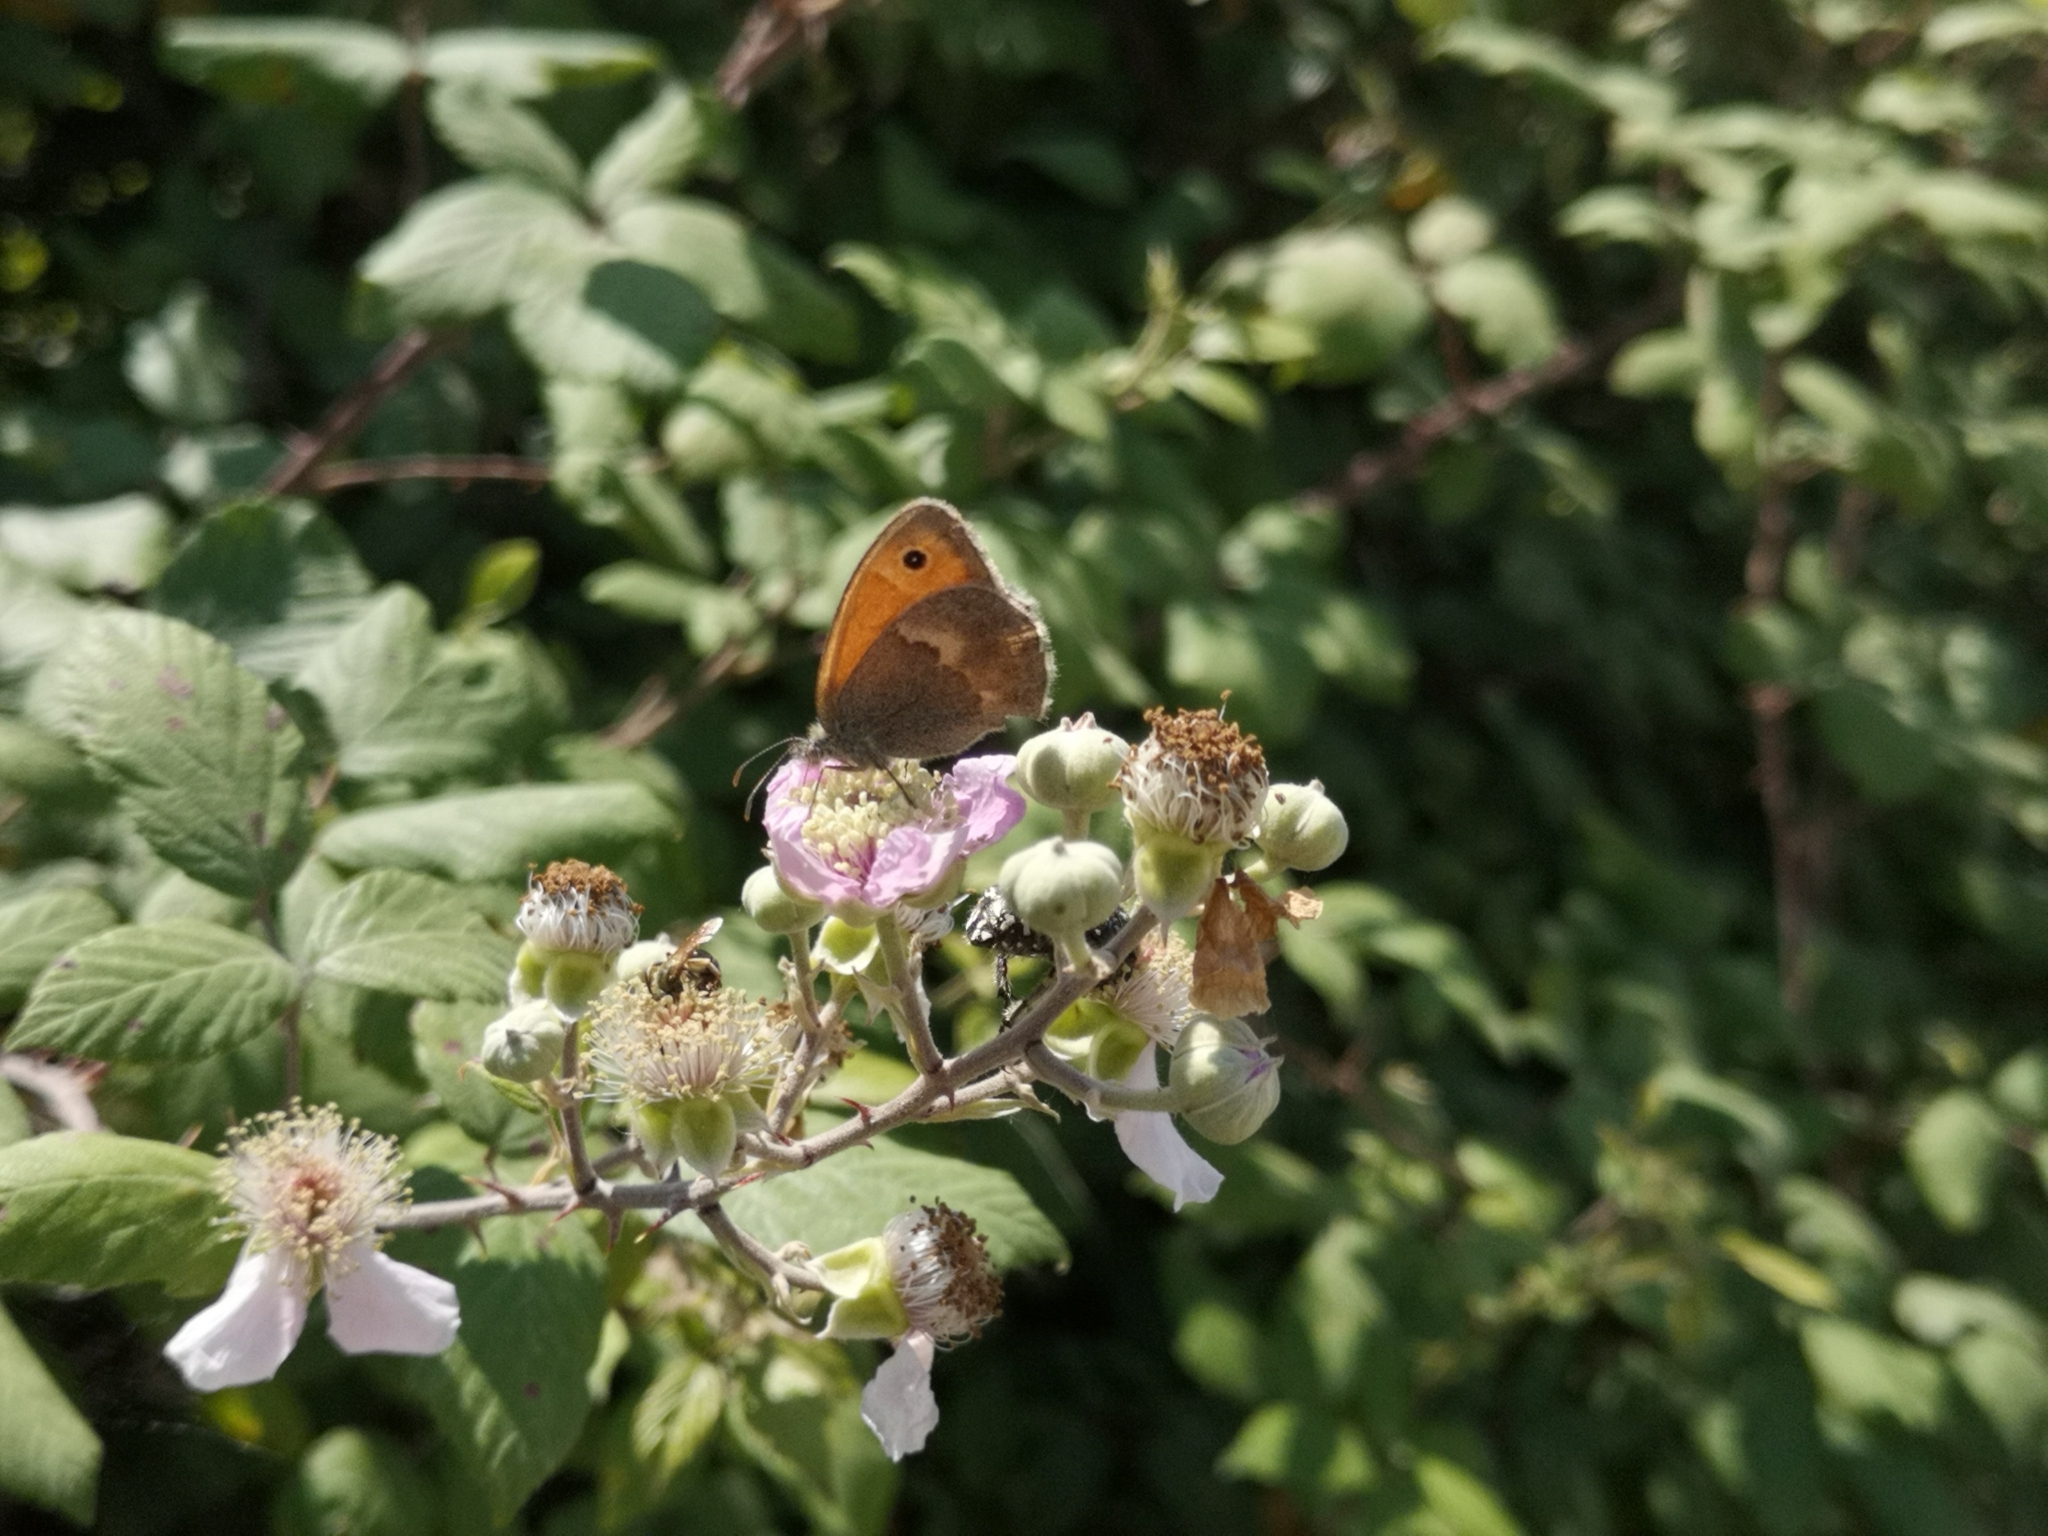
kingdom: Animalia
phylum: Arthropoda
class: Insecta
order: Lepidoptera
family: Nymphalidae
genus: Coenonympha
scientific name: Coenonympha pamphilus
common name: Small heath
